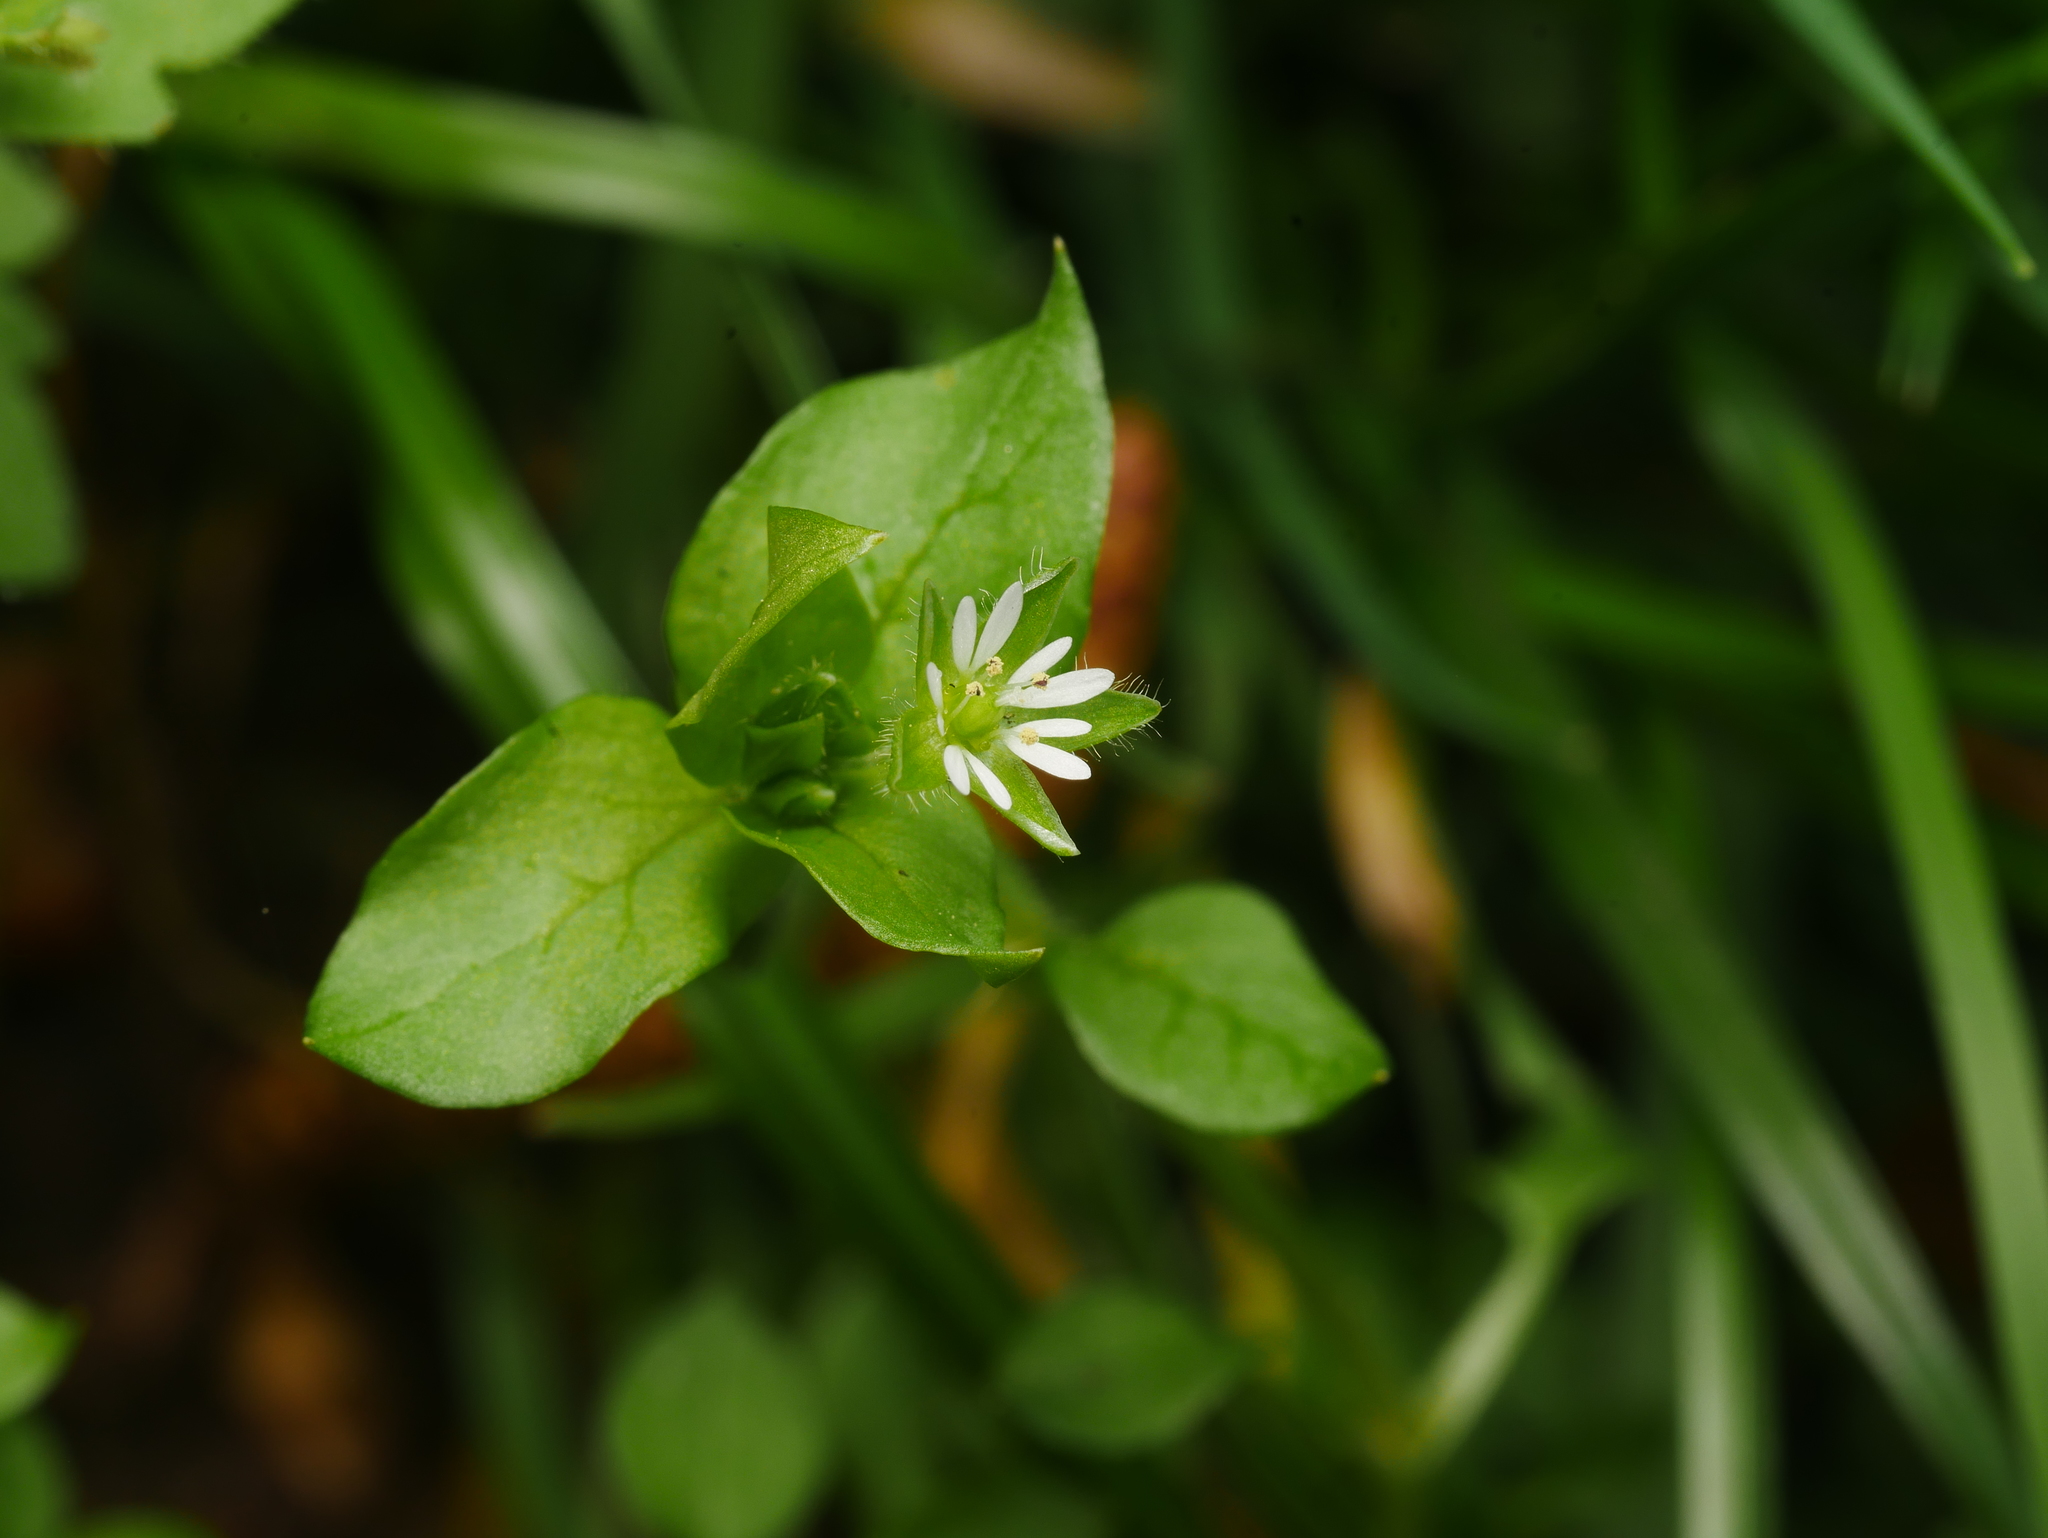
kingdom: Plantae
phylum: Tracheophyta
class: Magnoliopsida
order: Caryophyllales
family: Caryophyllaceae
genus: Stellaria
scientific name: Stellaria media
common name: Common chickweed
